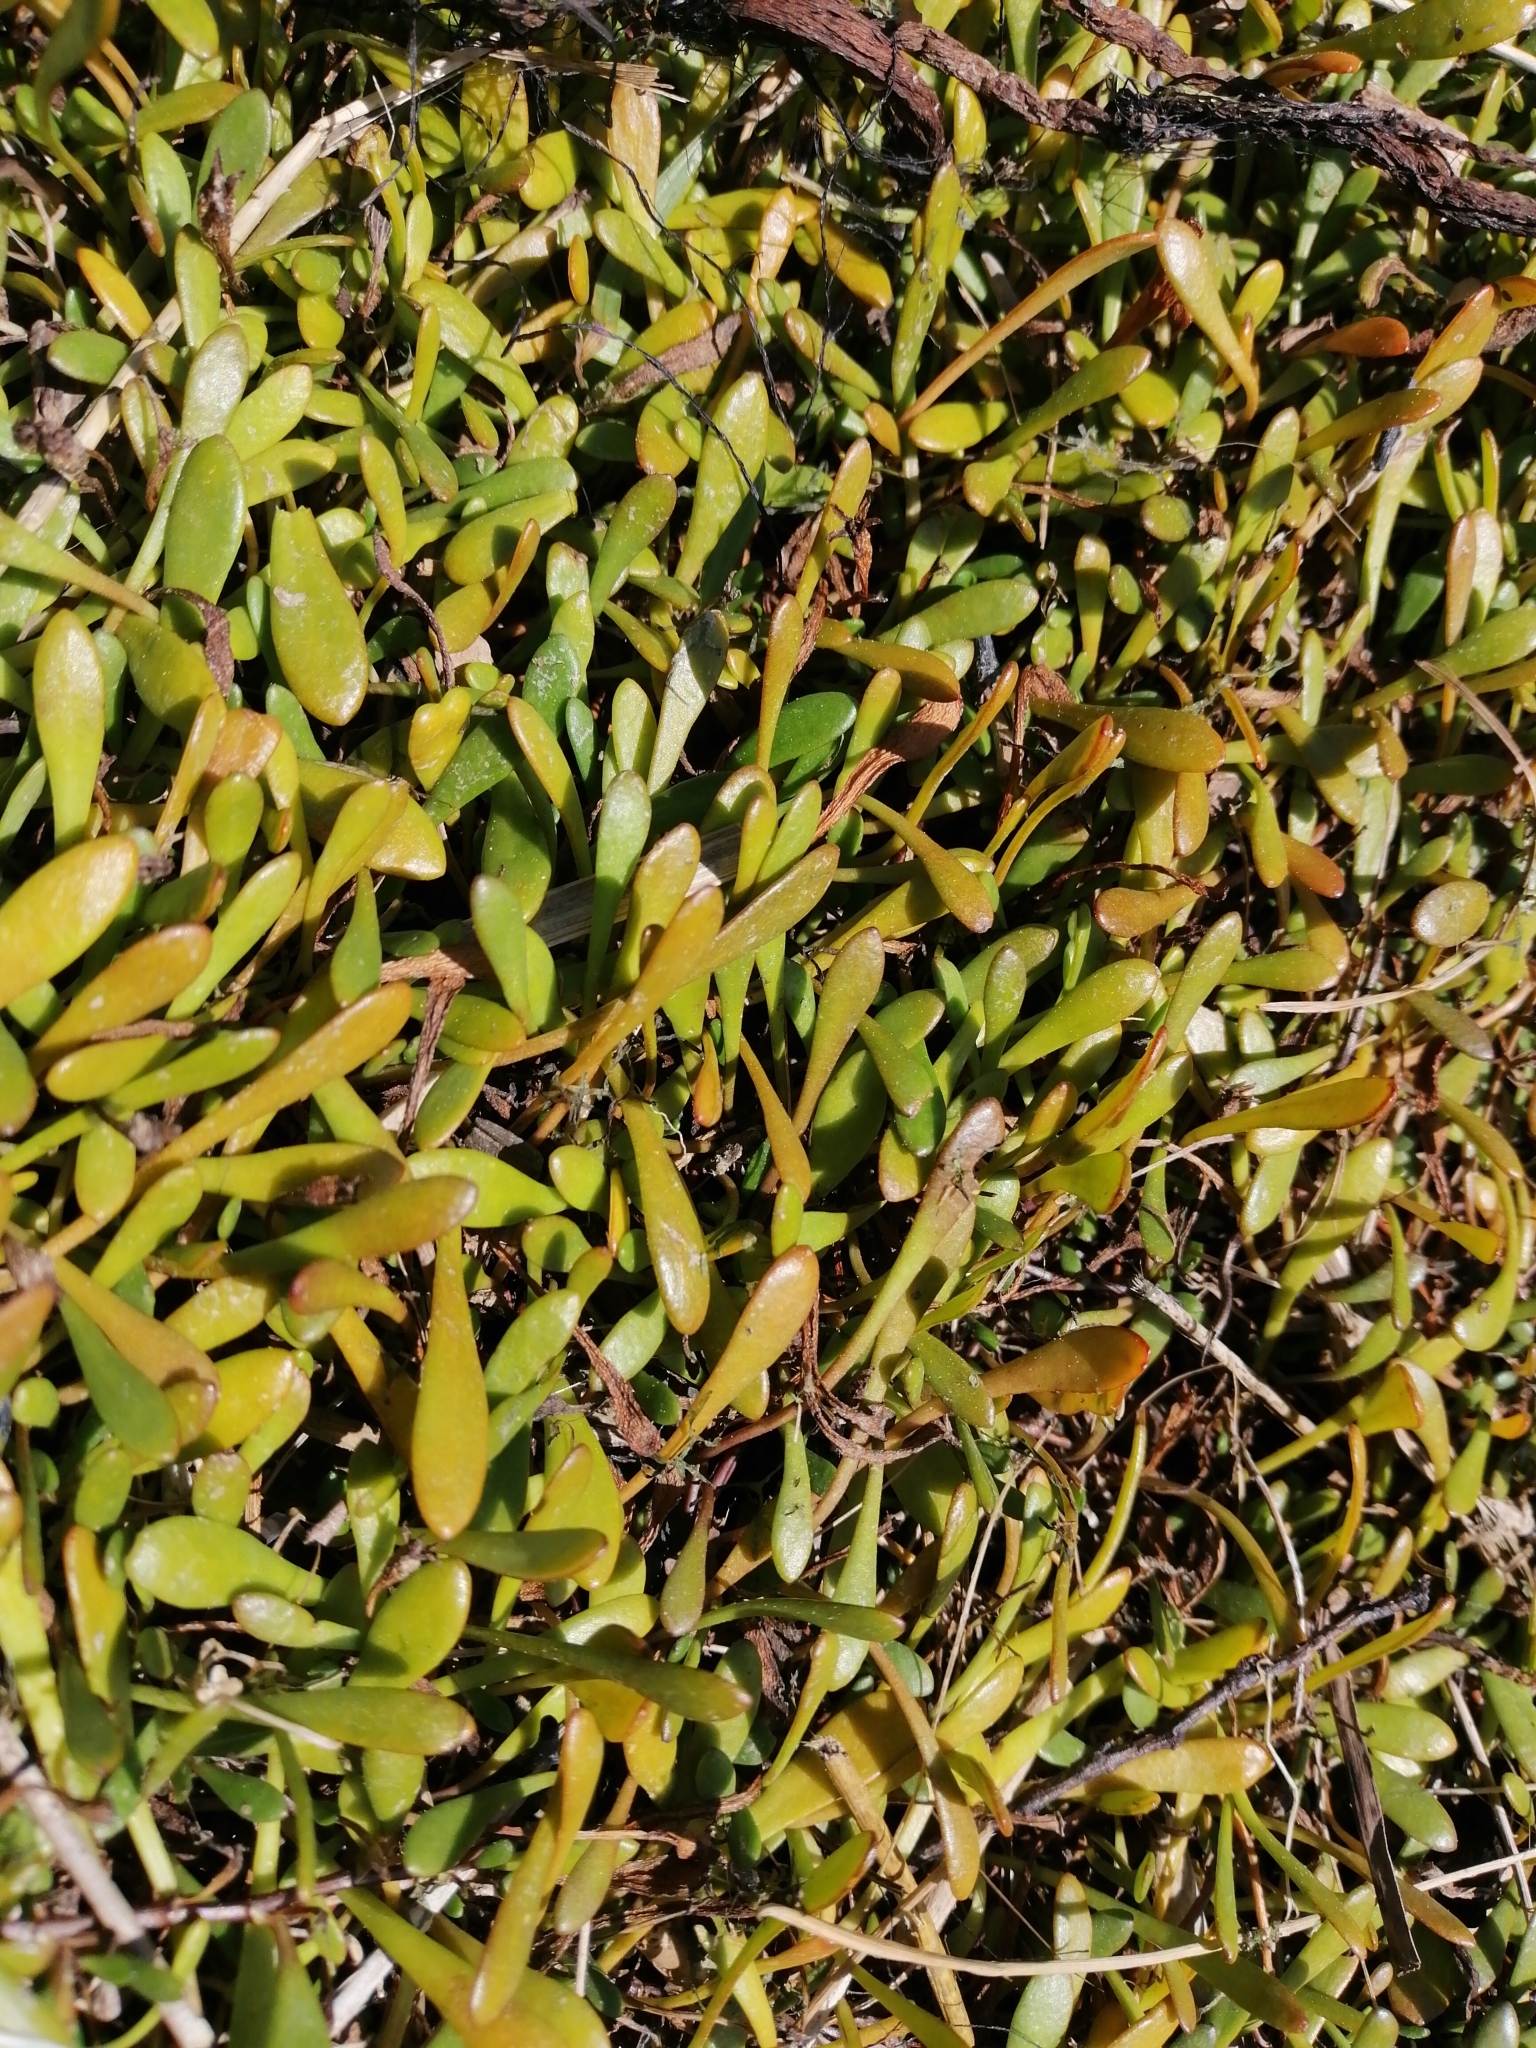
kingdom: Plantae
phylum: Tracheophyta
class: Magnoliopsida
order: Asterales
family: Goodeniaceae
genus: Goodenia
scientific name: Goodenia radicans
